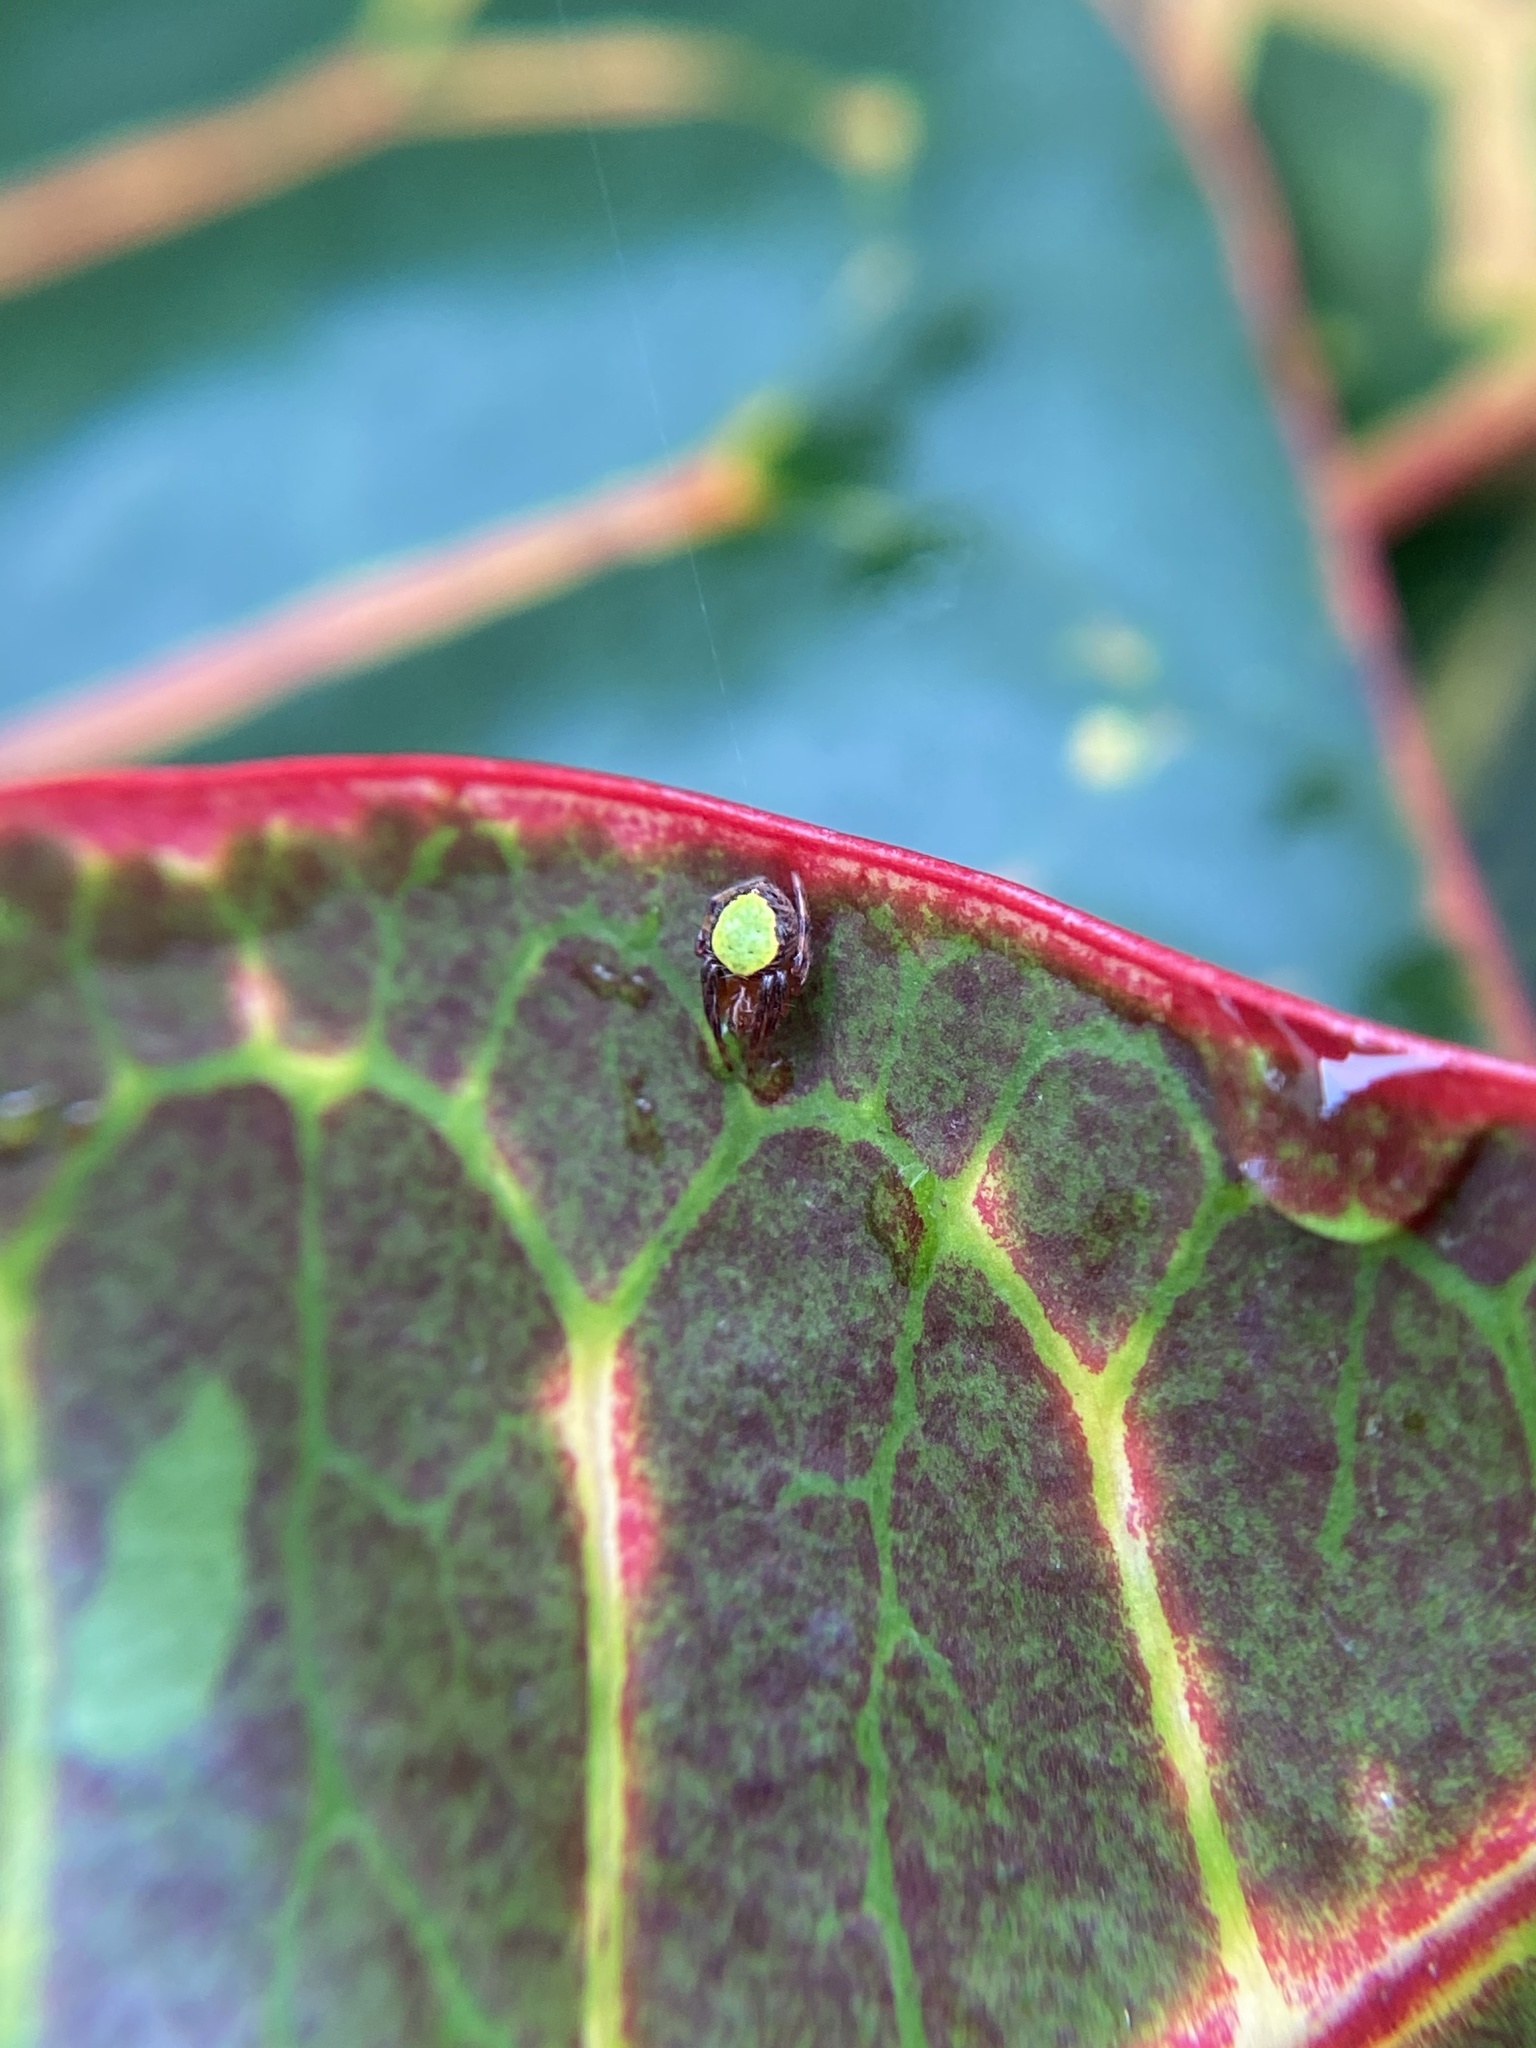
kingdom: Animalia
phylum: Arthropoda
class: Arachnida
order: Araneae
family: Araneidae
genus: Eriophora
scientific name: Eriophora ravilla
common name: Orb weavers
